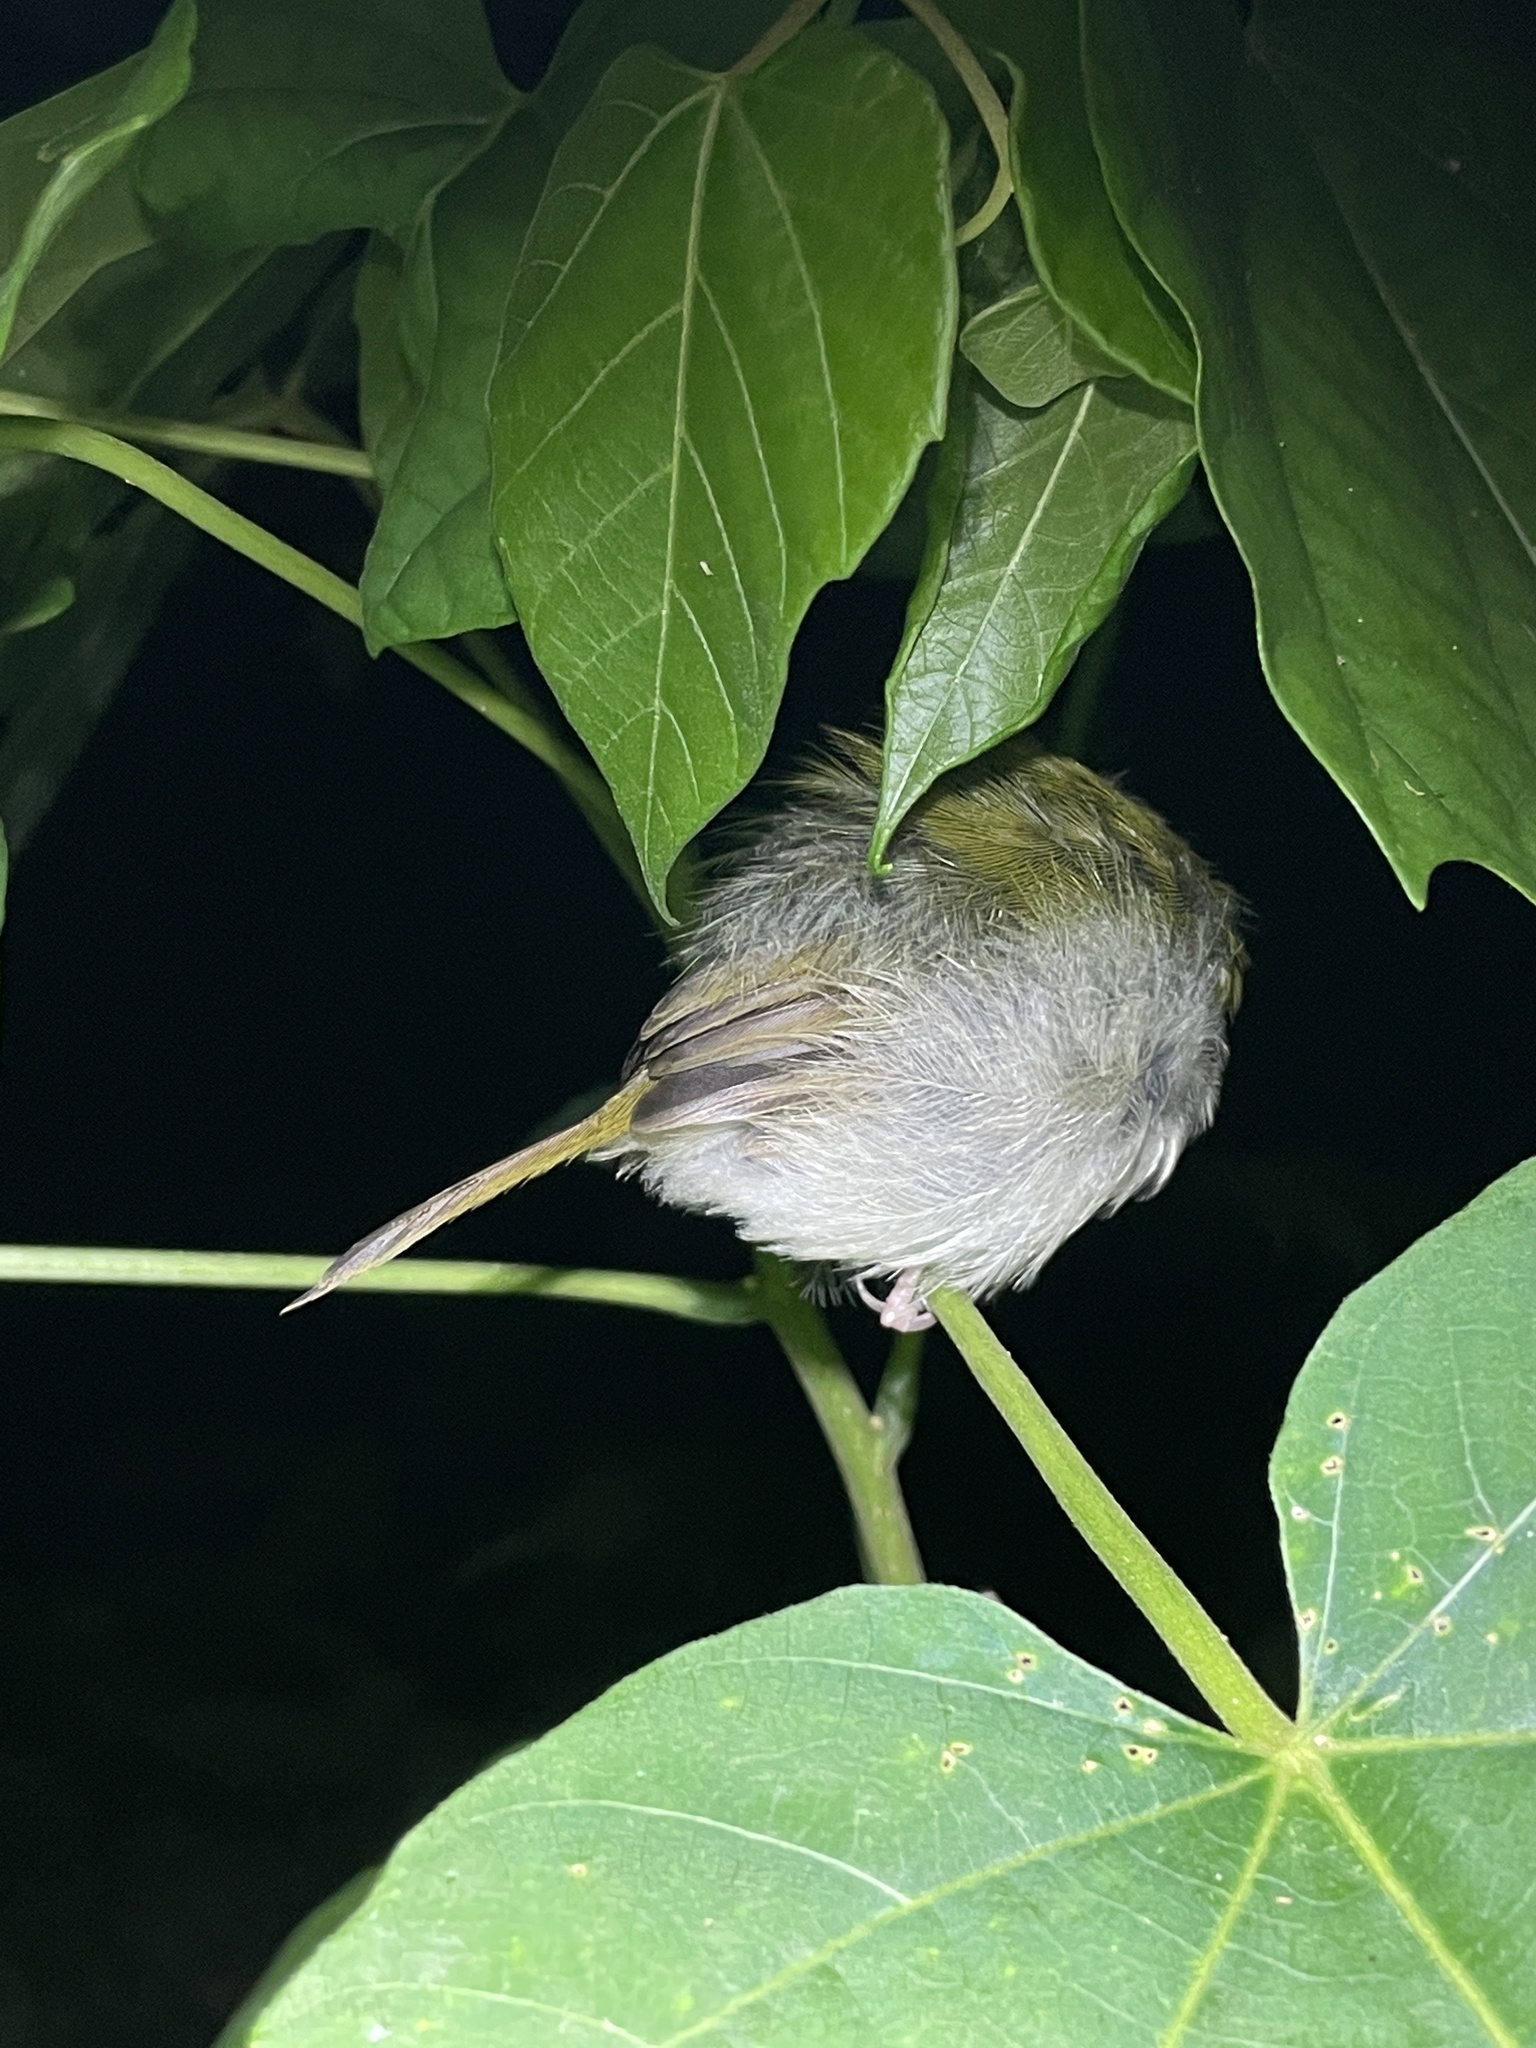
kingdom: Animalia
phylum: Chordata
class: Aves
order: Passeriformes
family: Cisticolidae
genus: Orthotomus
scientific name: Orthotomus sutorius
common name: Common tailorbird
